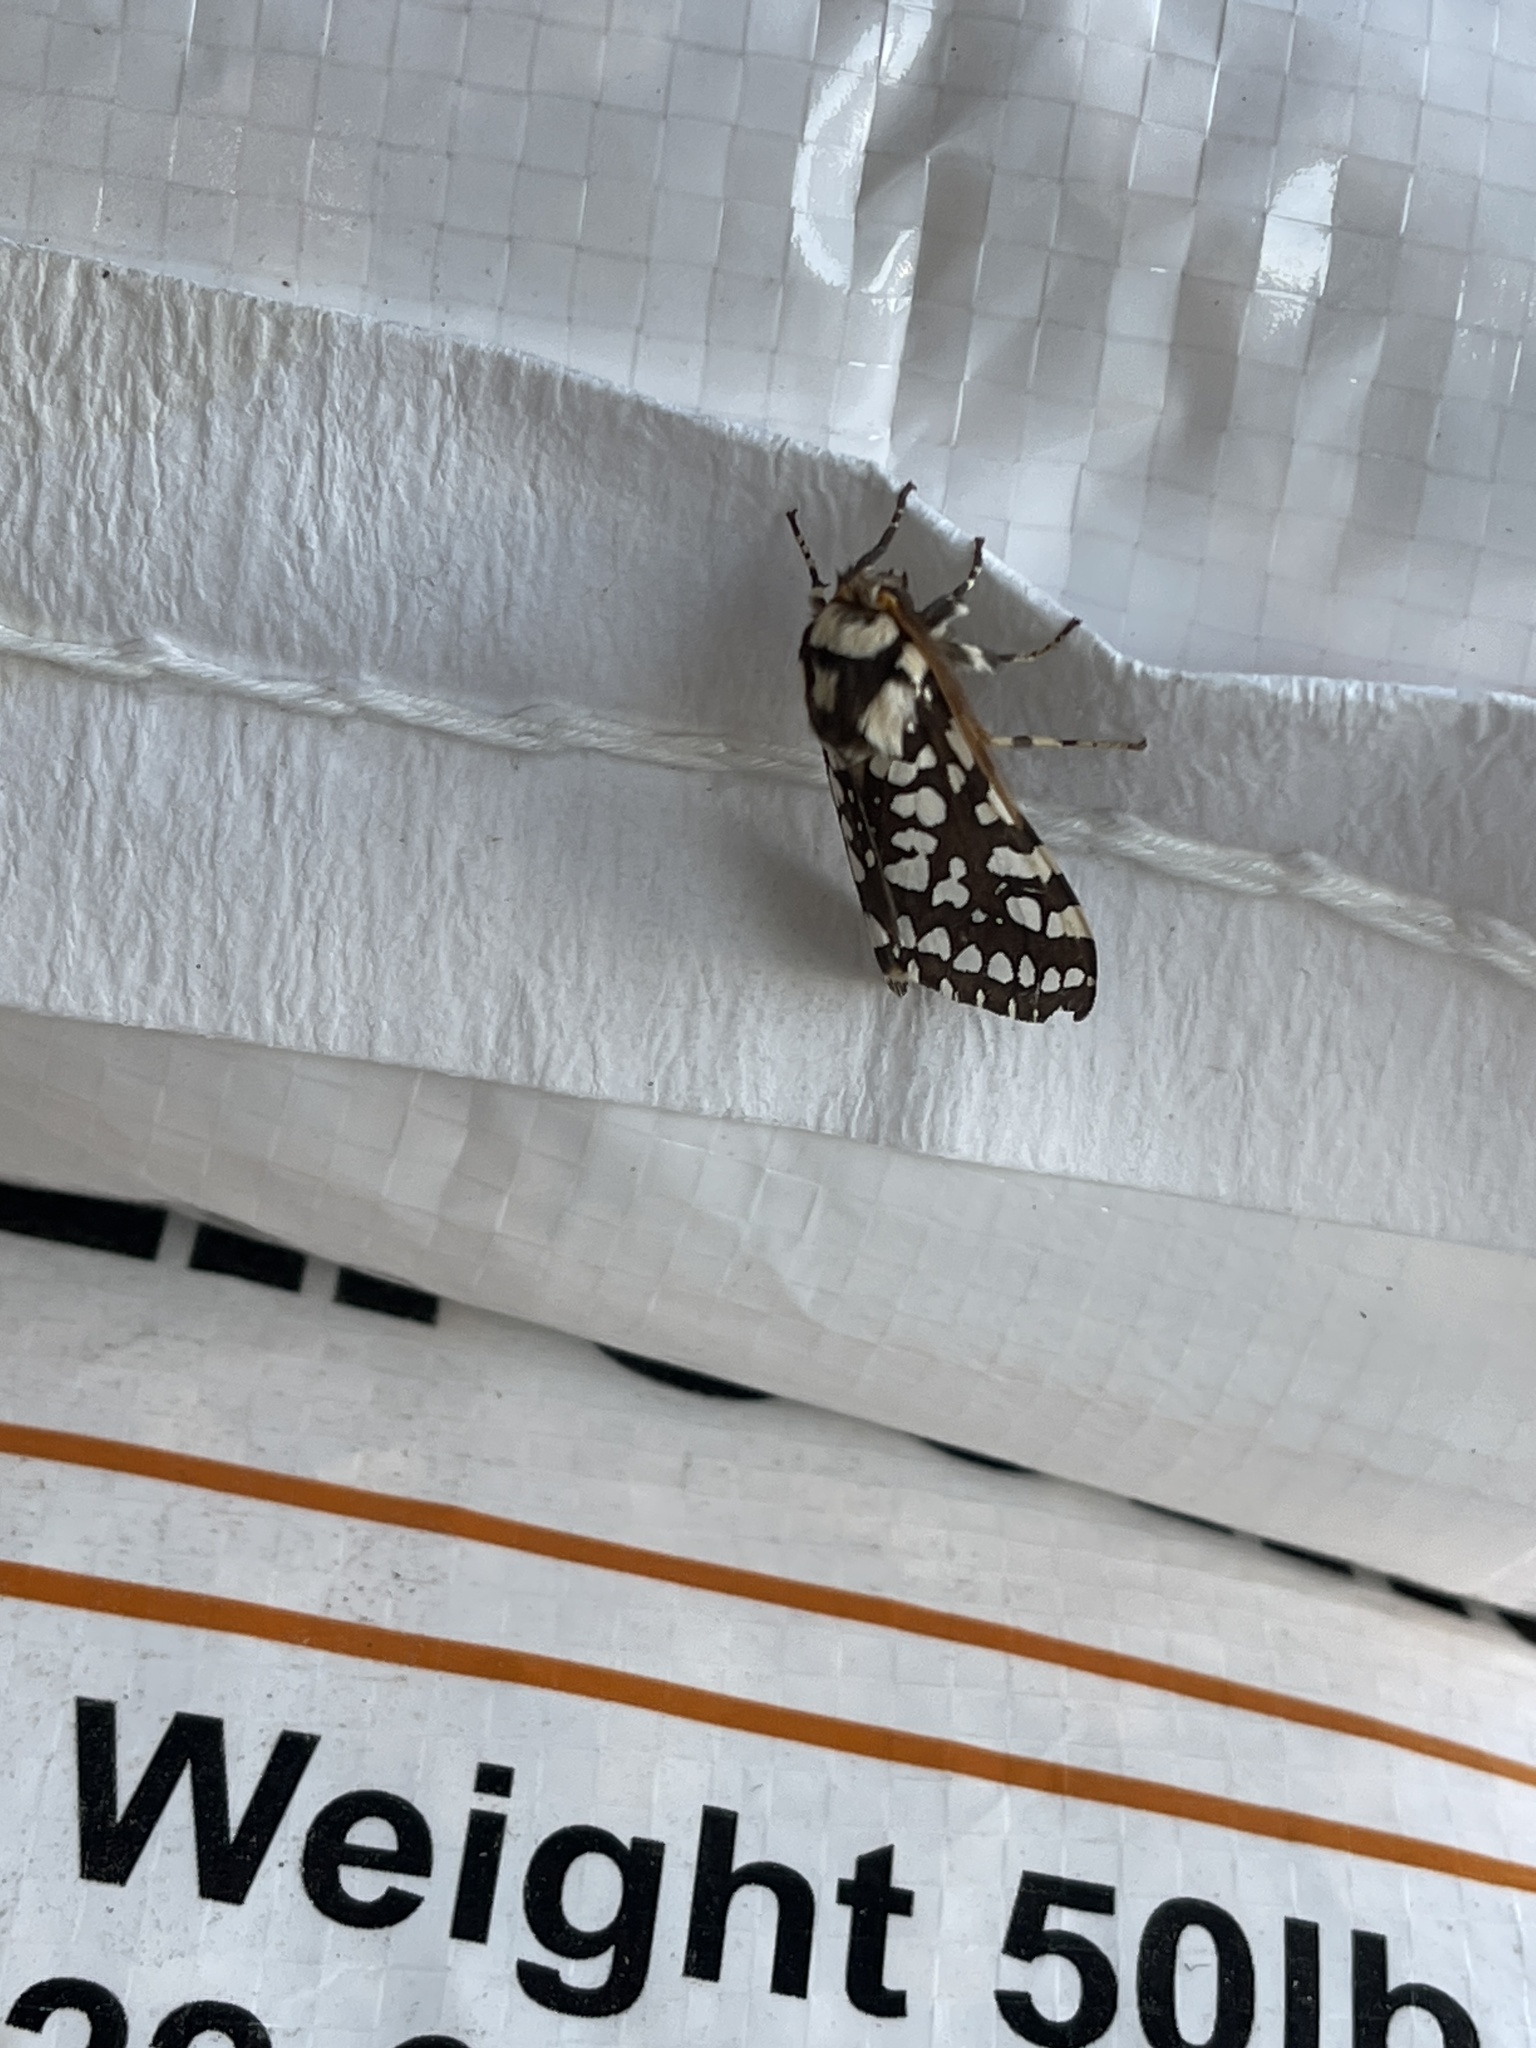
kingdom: Animalia
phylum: Arthropoda
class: Insecta
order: Lepidoptera
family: Erebidae
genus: Lophocampa
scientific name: Lophocampa ingens
